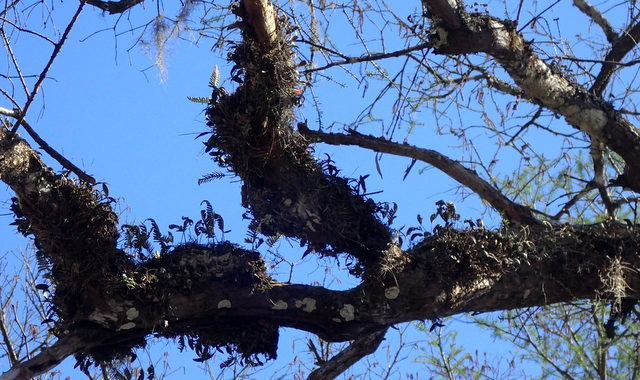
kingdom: Plantae
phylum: Tracheophyta
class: Liliopsida
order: Asparagales
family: Orchidaceae
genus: Epidendrum
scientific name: Epidendrum conopseum
